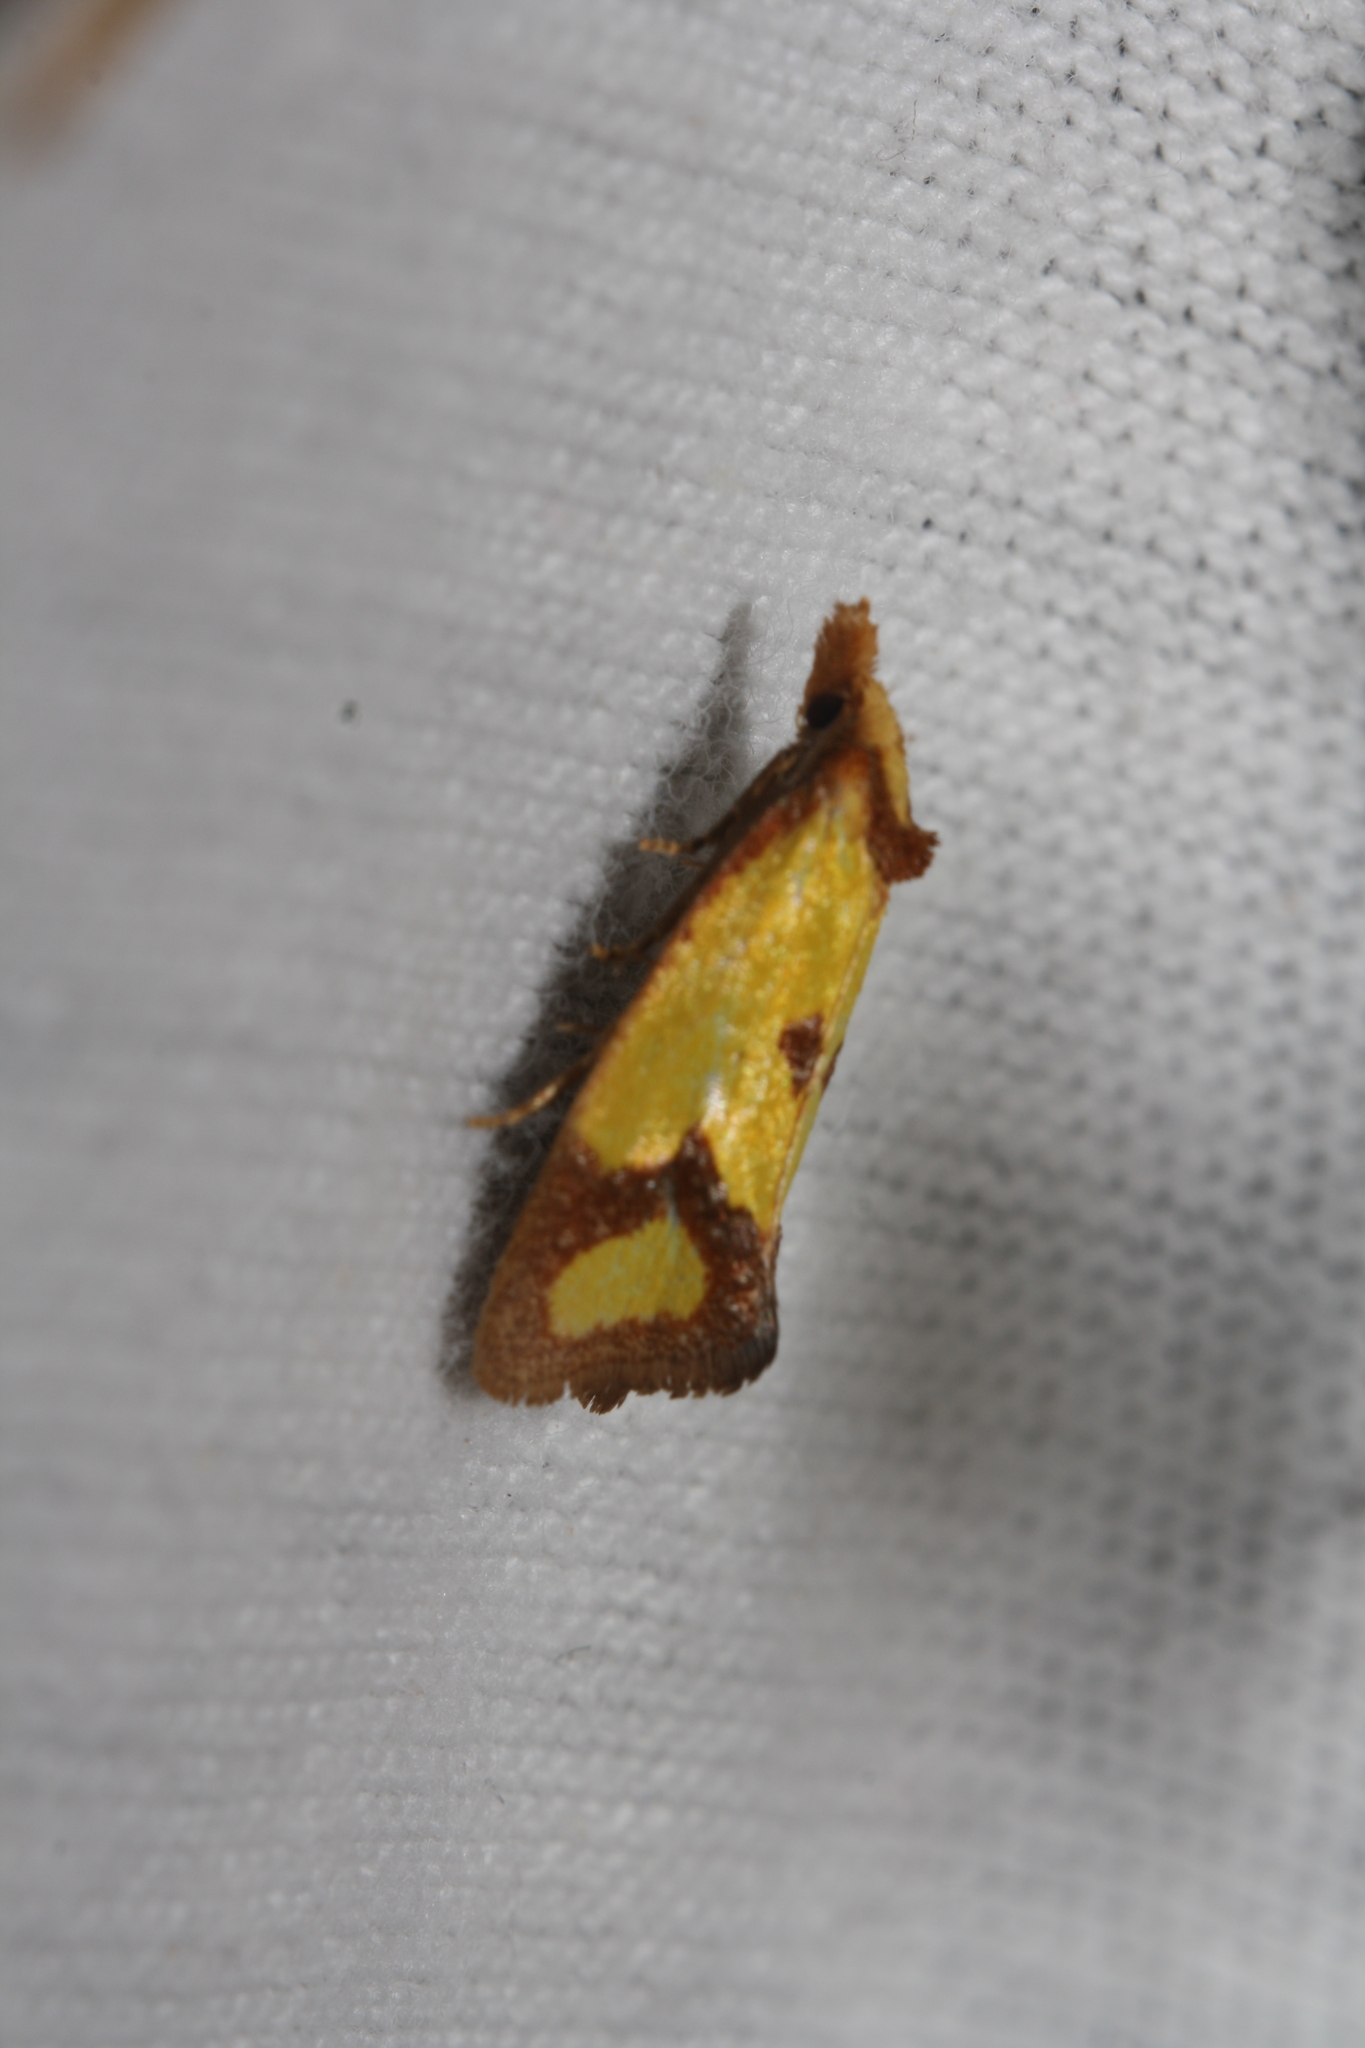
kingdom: Animalia
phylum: Arthropoda
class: Insecta
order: Lepidoptera
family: Tortricidae
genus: Agapeta
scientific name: Agapeta zoegana
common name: Sulfur knapweed root moth
